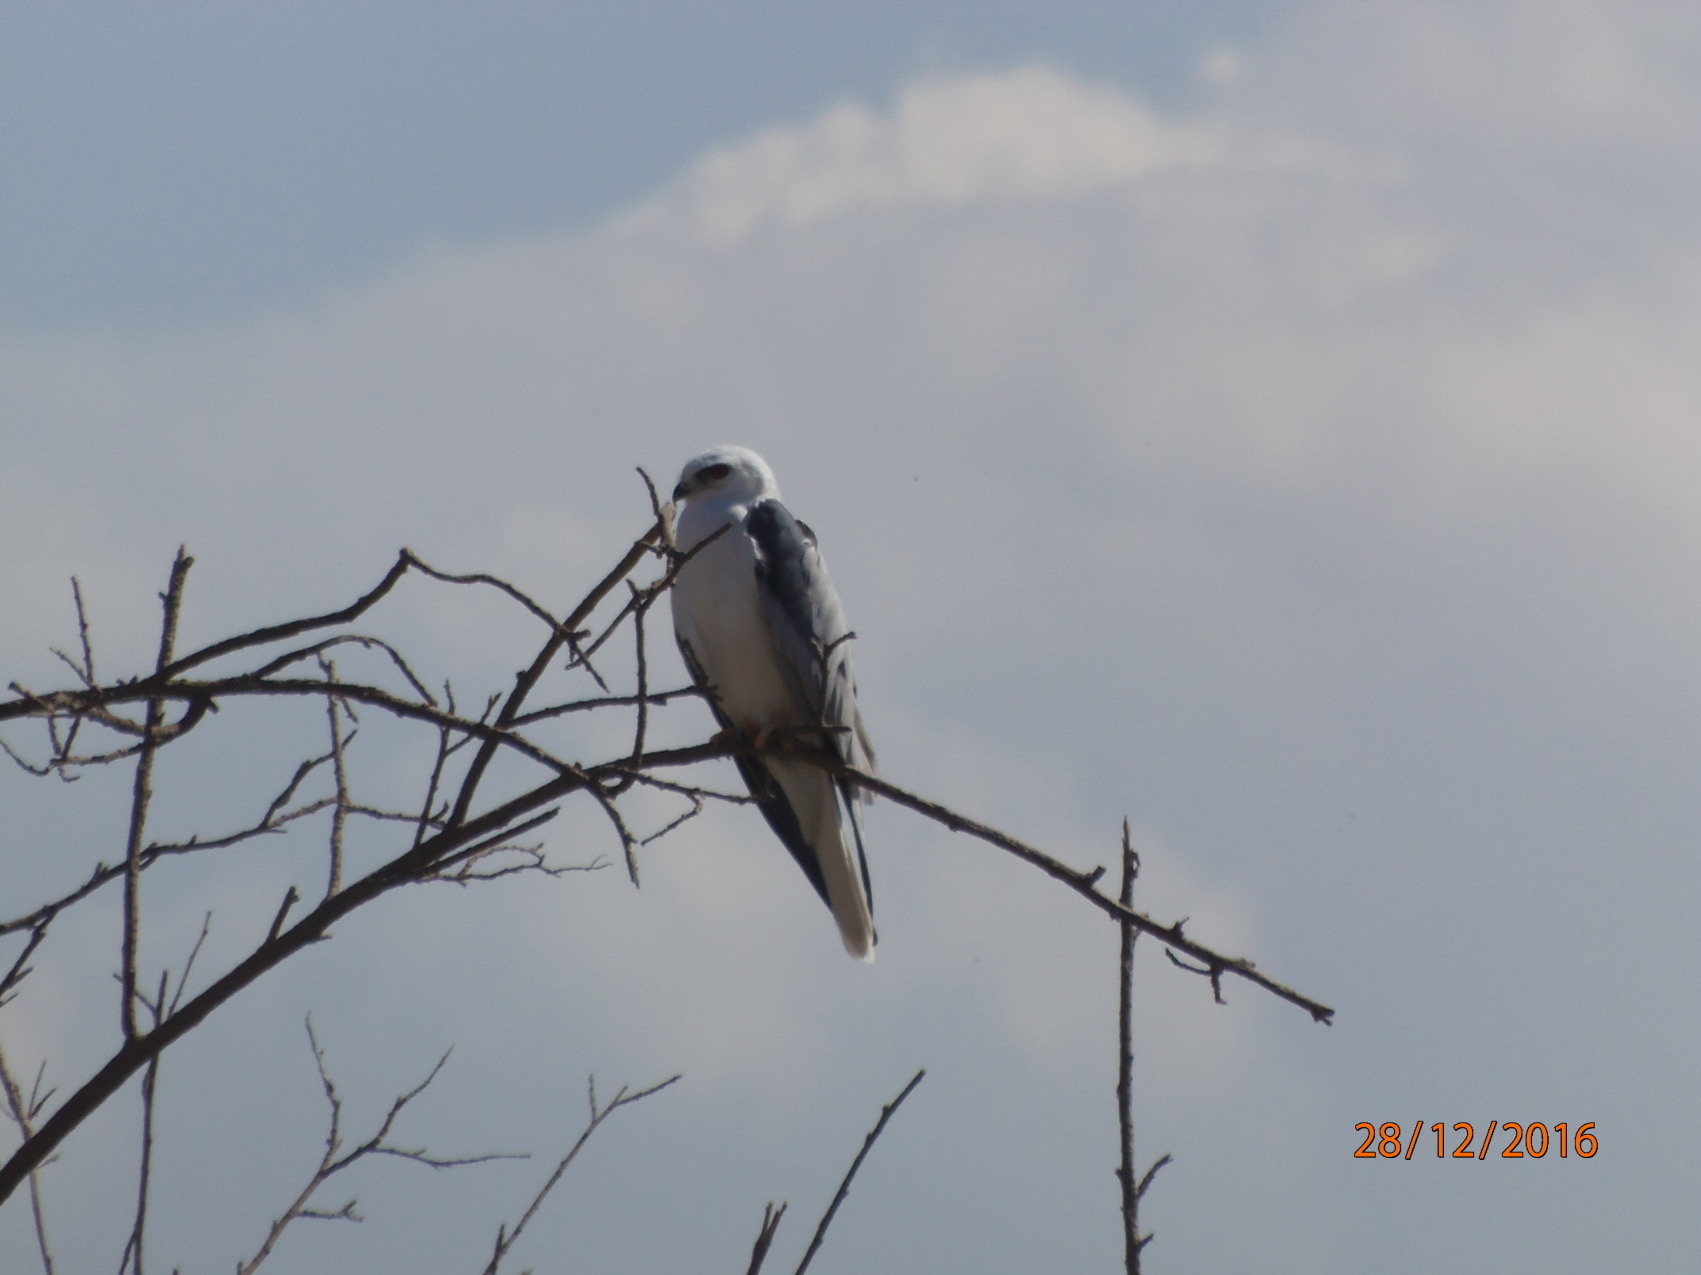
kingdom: Animalia
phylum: Chordata
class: Aves
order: Accipitriformes
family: Accipitridae
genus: Elanus
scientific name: Elanus leucurus
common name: White-tailed kite
